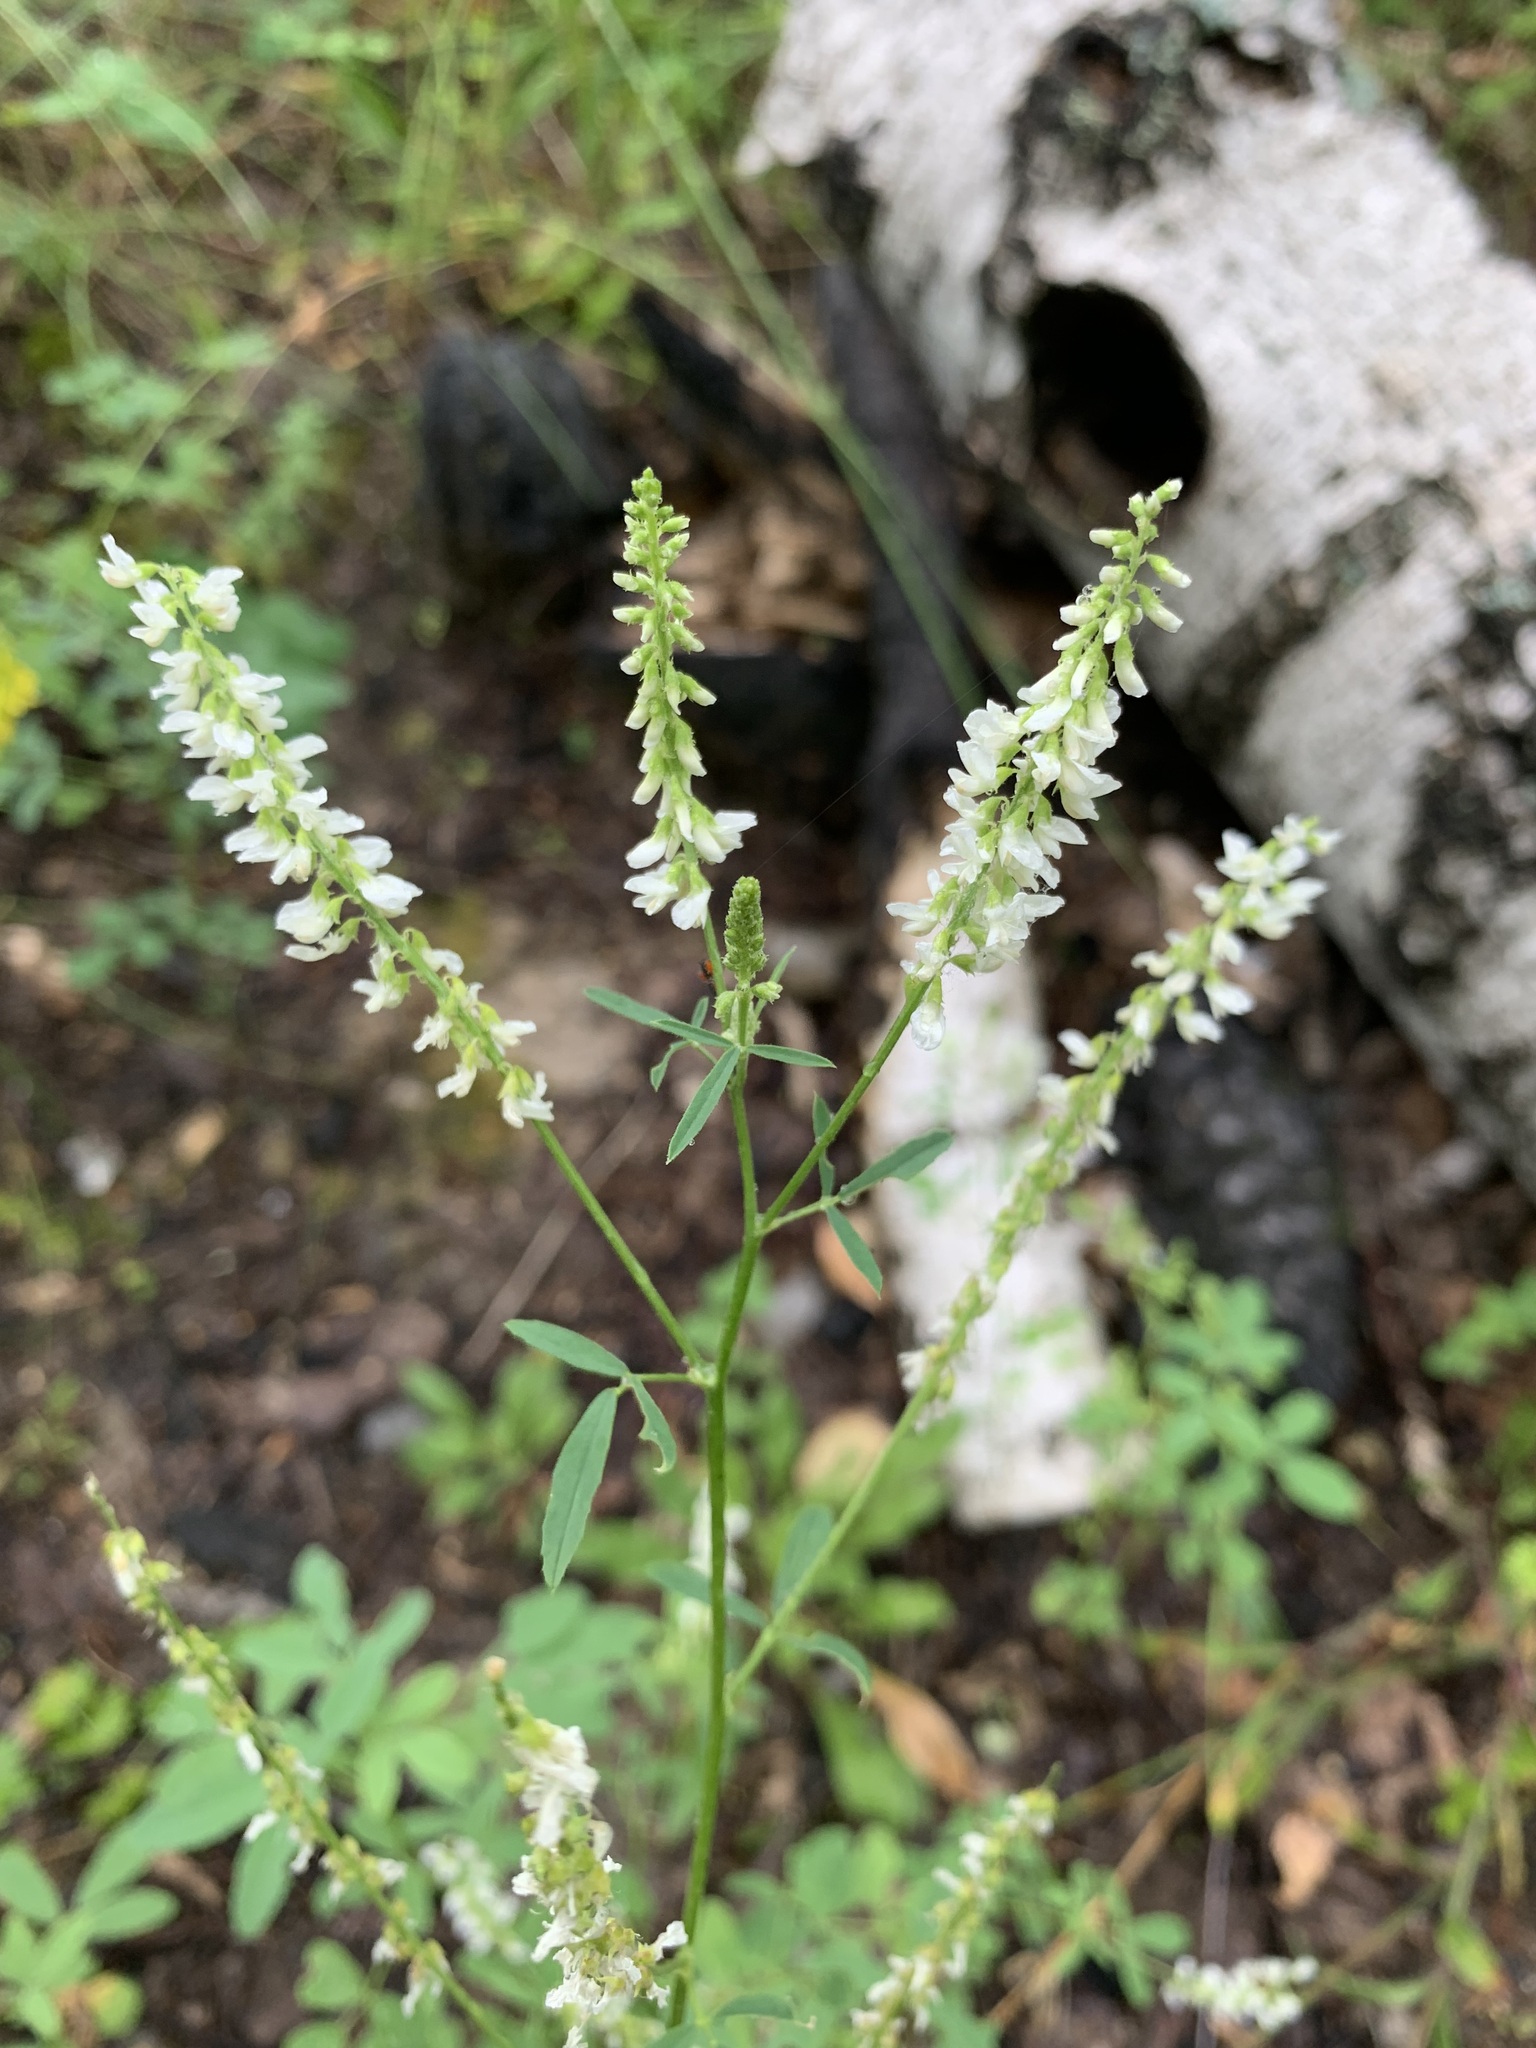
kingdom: Plantae
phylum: Tracheophyta
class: Magnoliopsida
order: Fabales
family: Fabaceae
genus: Melilotus
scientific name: Melilotus albus
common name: White melilot
